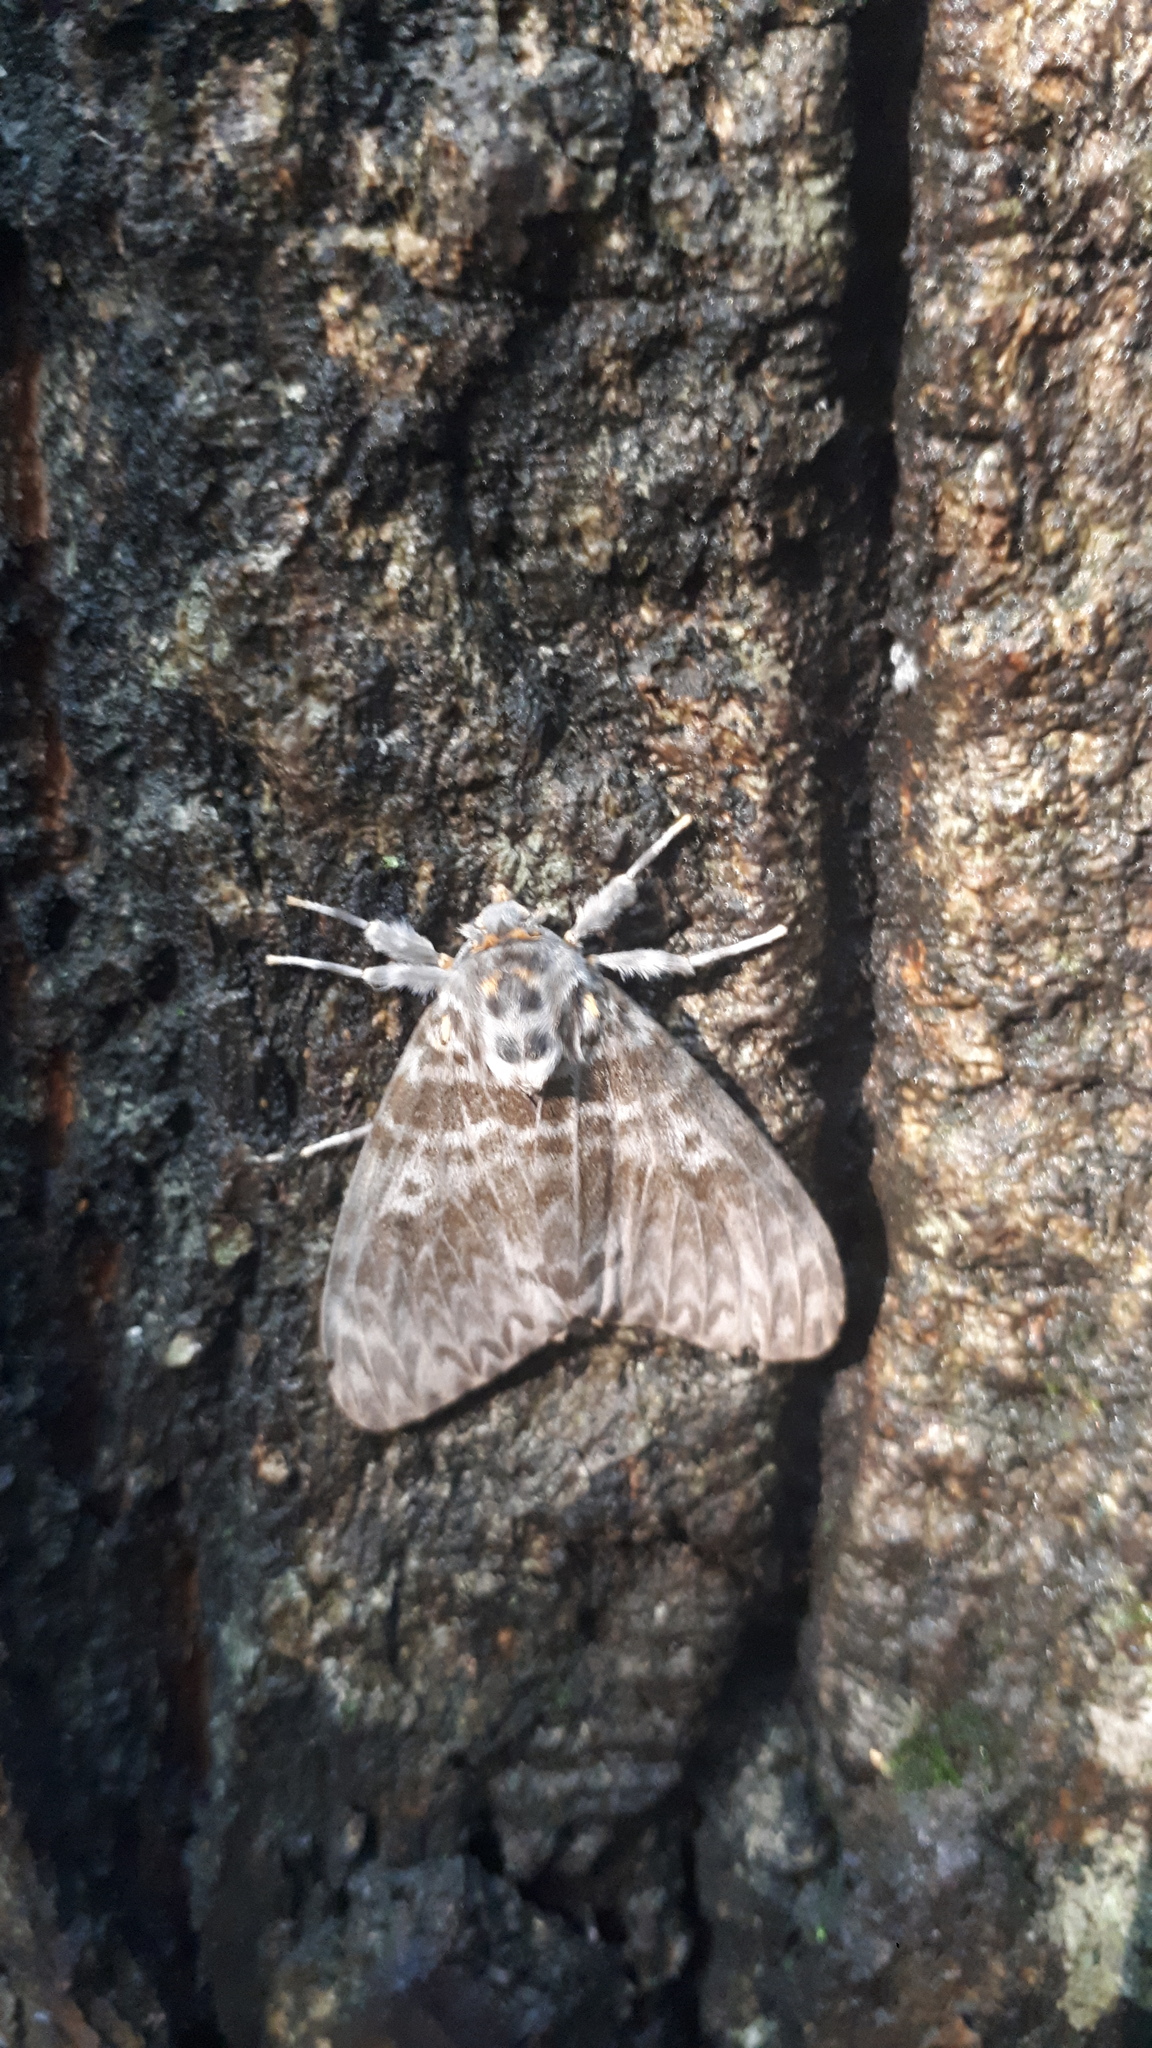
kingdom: Animalia
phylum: Arthropoda
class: Insecta
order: Lepidoptera
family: Erebidae
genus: Lymantria
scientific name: Lymantria mathura
